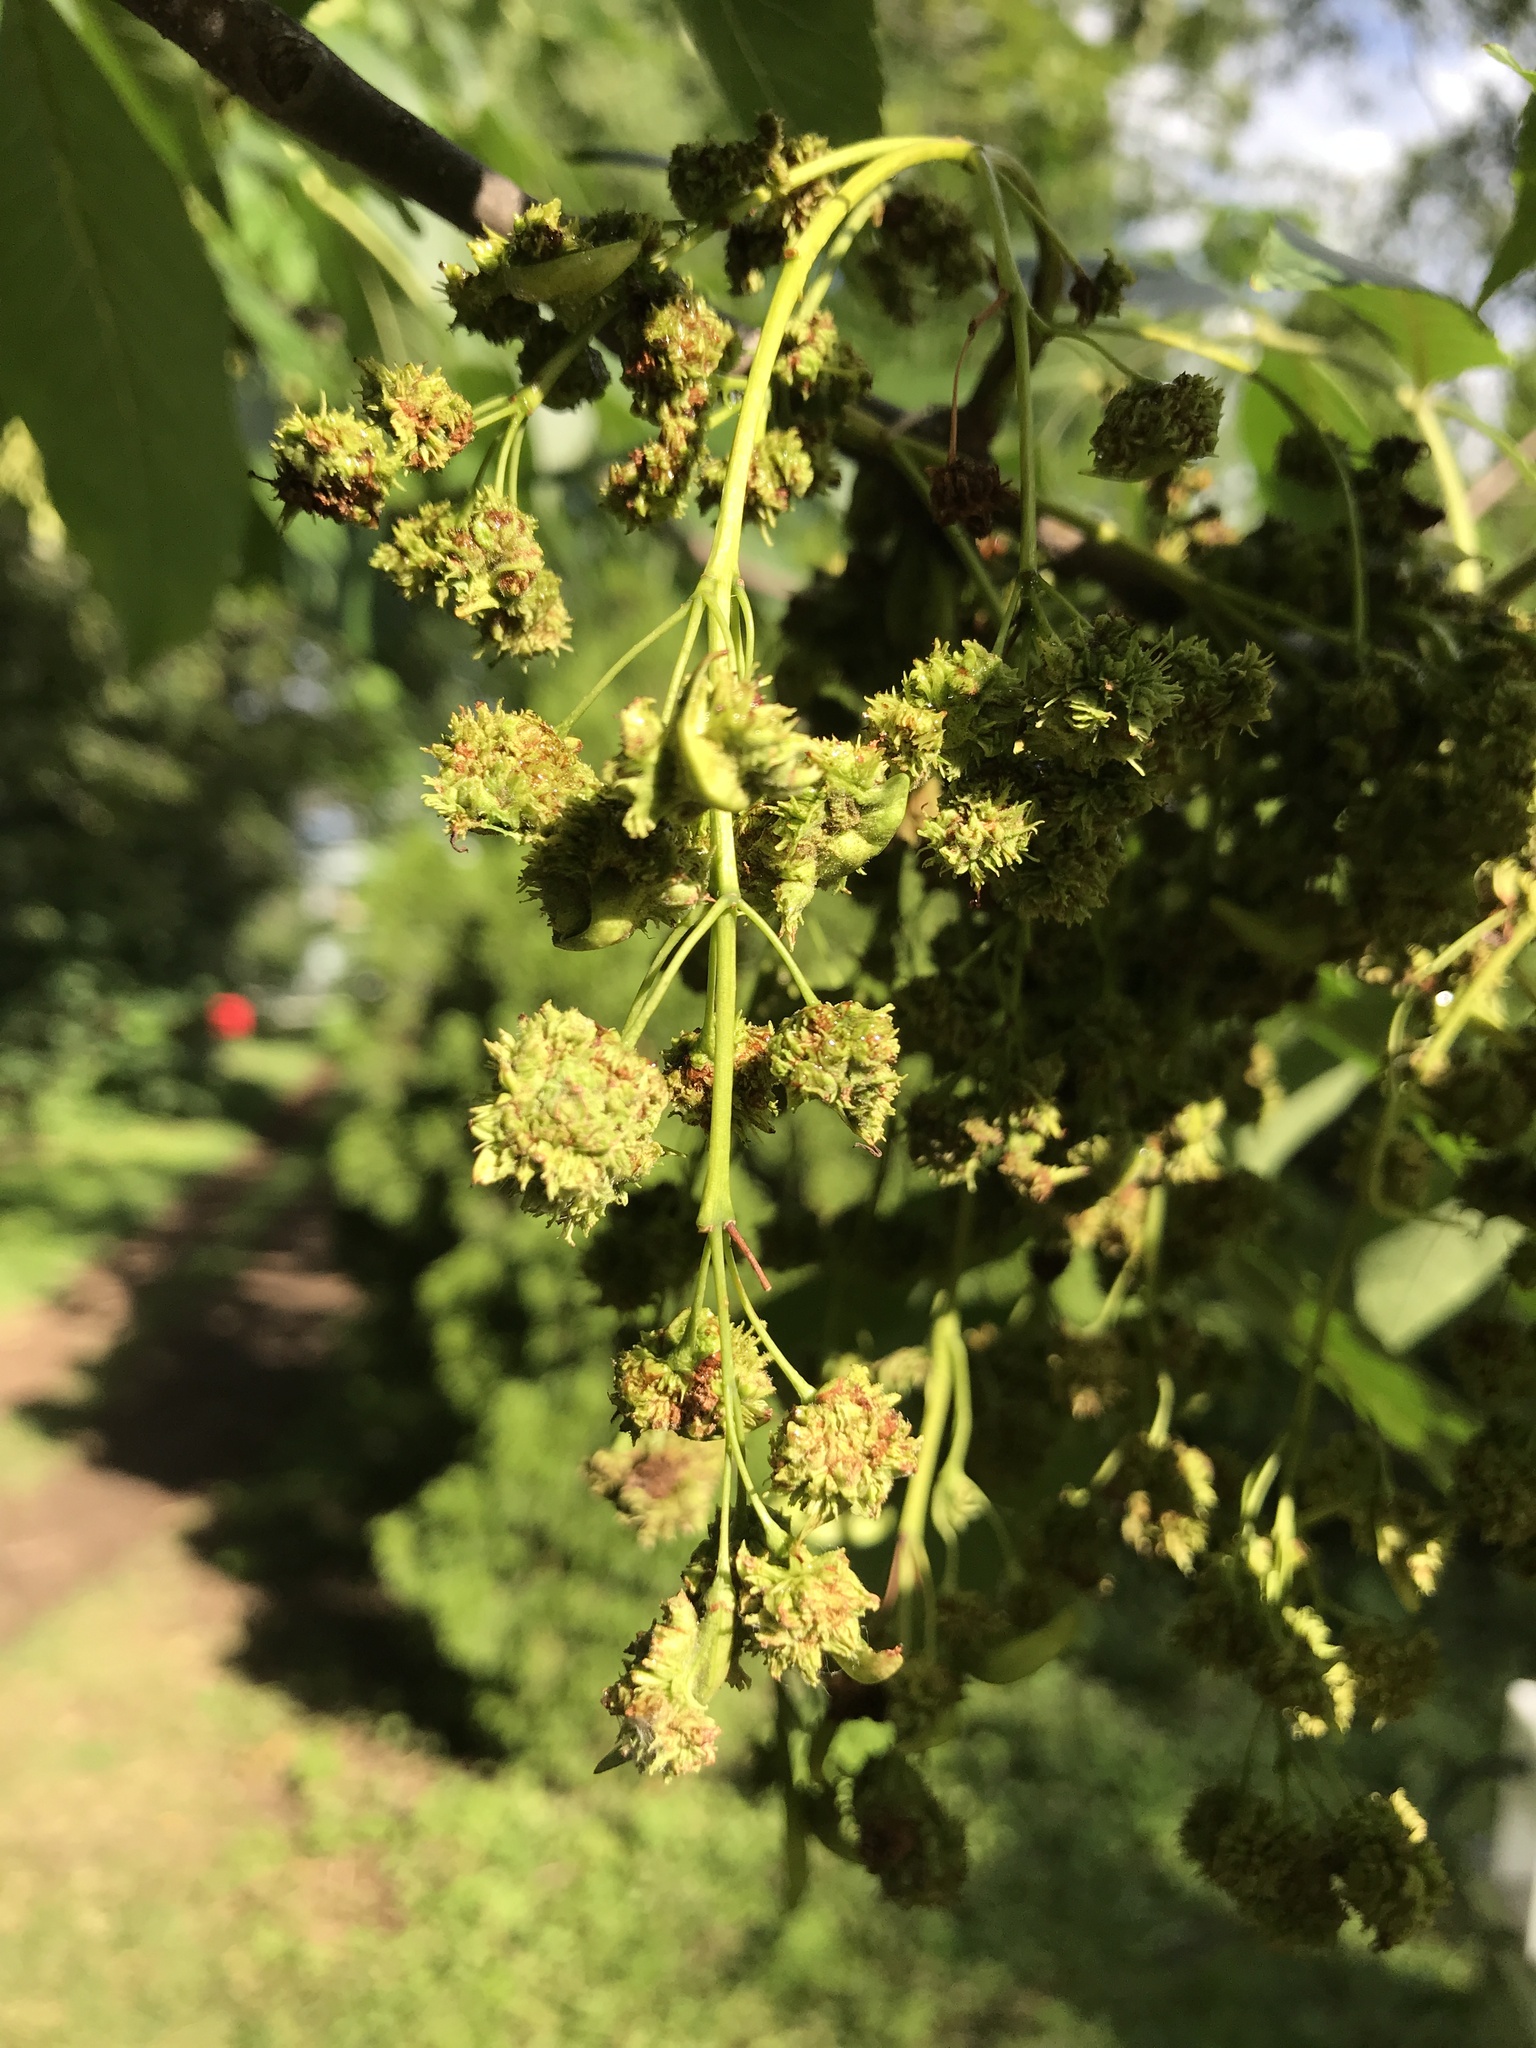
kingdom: Animalia
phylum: Arthropoda
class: Arachnida
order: Trombidiformes
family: Eriophyidae
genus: Aceria
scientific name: Aceria fraxiniflora
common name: Ash flower gall mite
